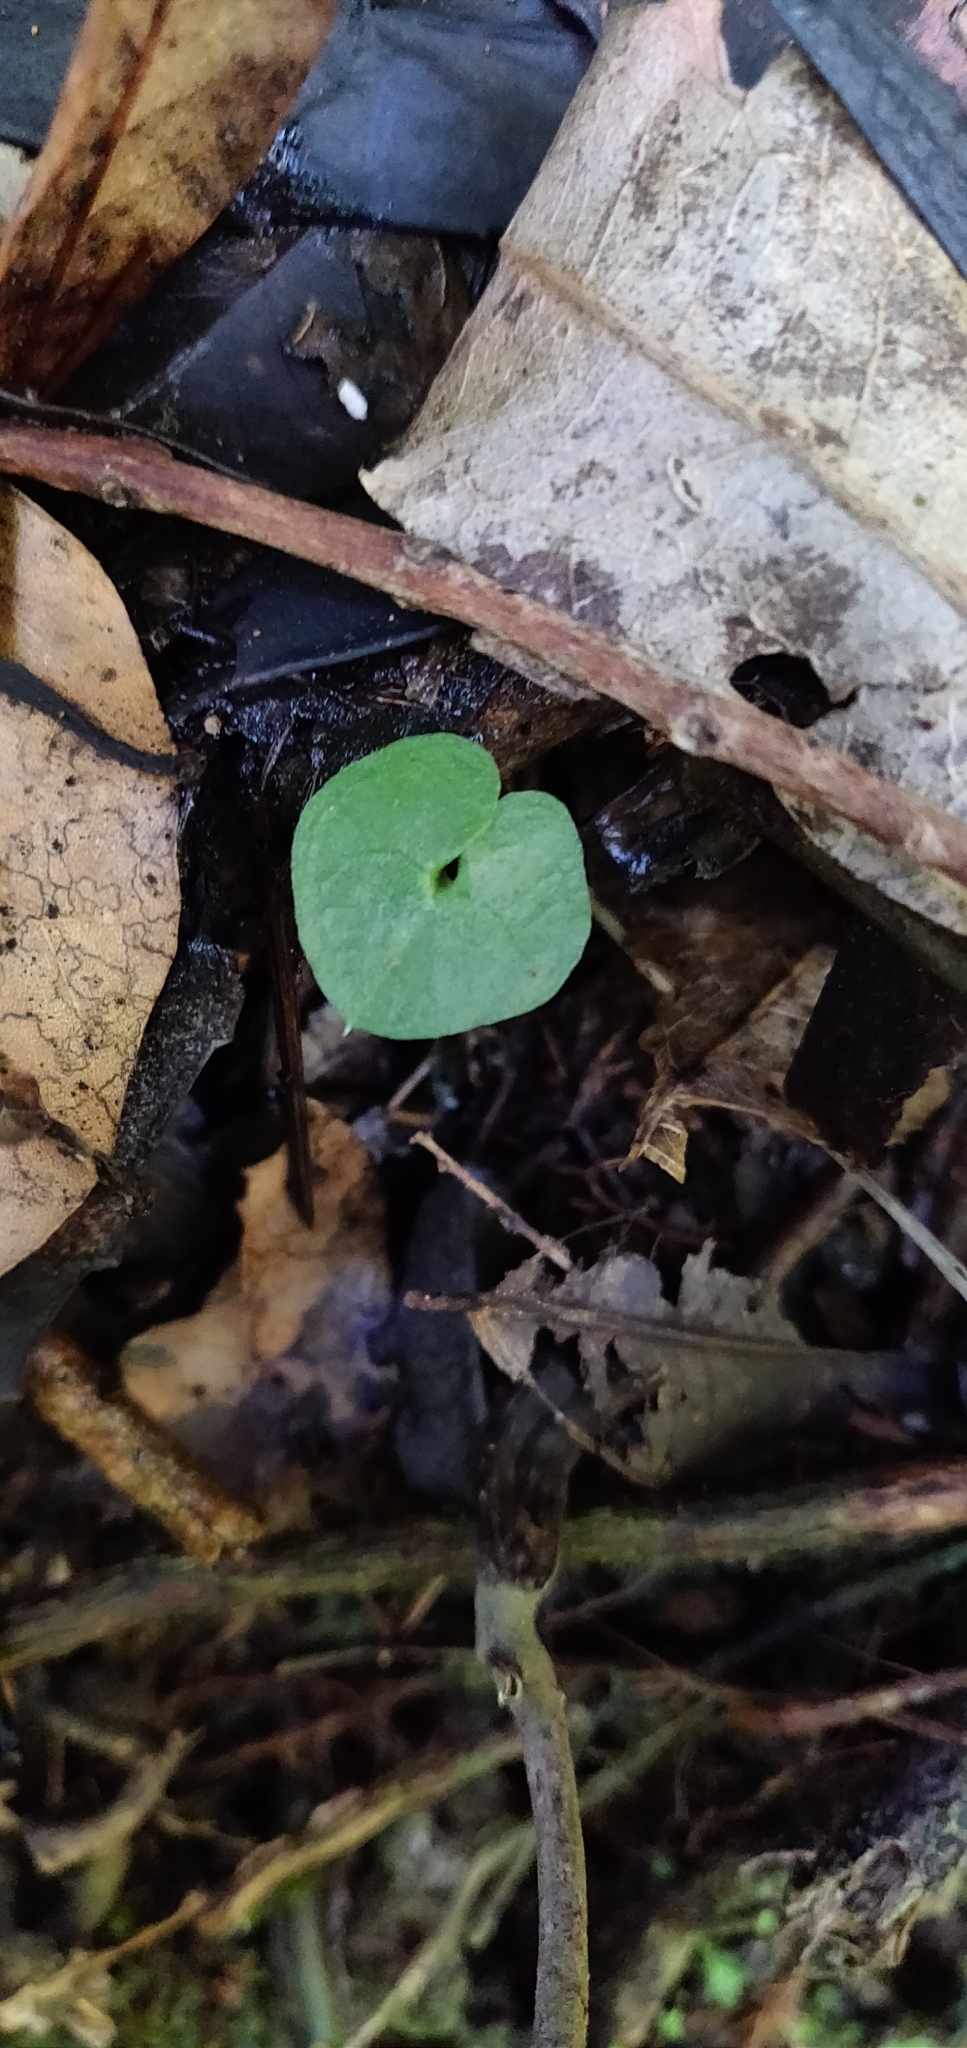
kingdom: Plantae
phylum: Tracheophyta
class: Liliopsida
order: Asparagales
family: Orchidaceae
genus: Acianthus
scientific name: Acianthus sinclairii
